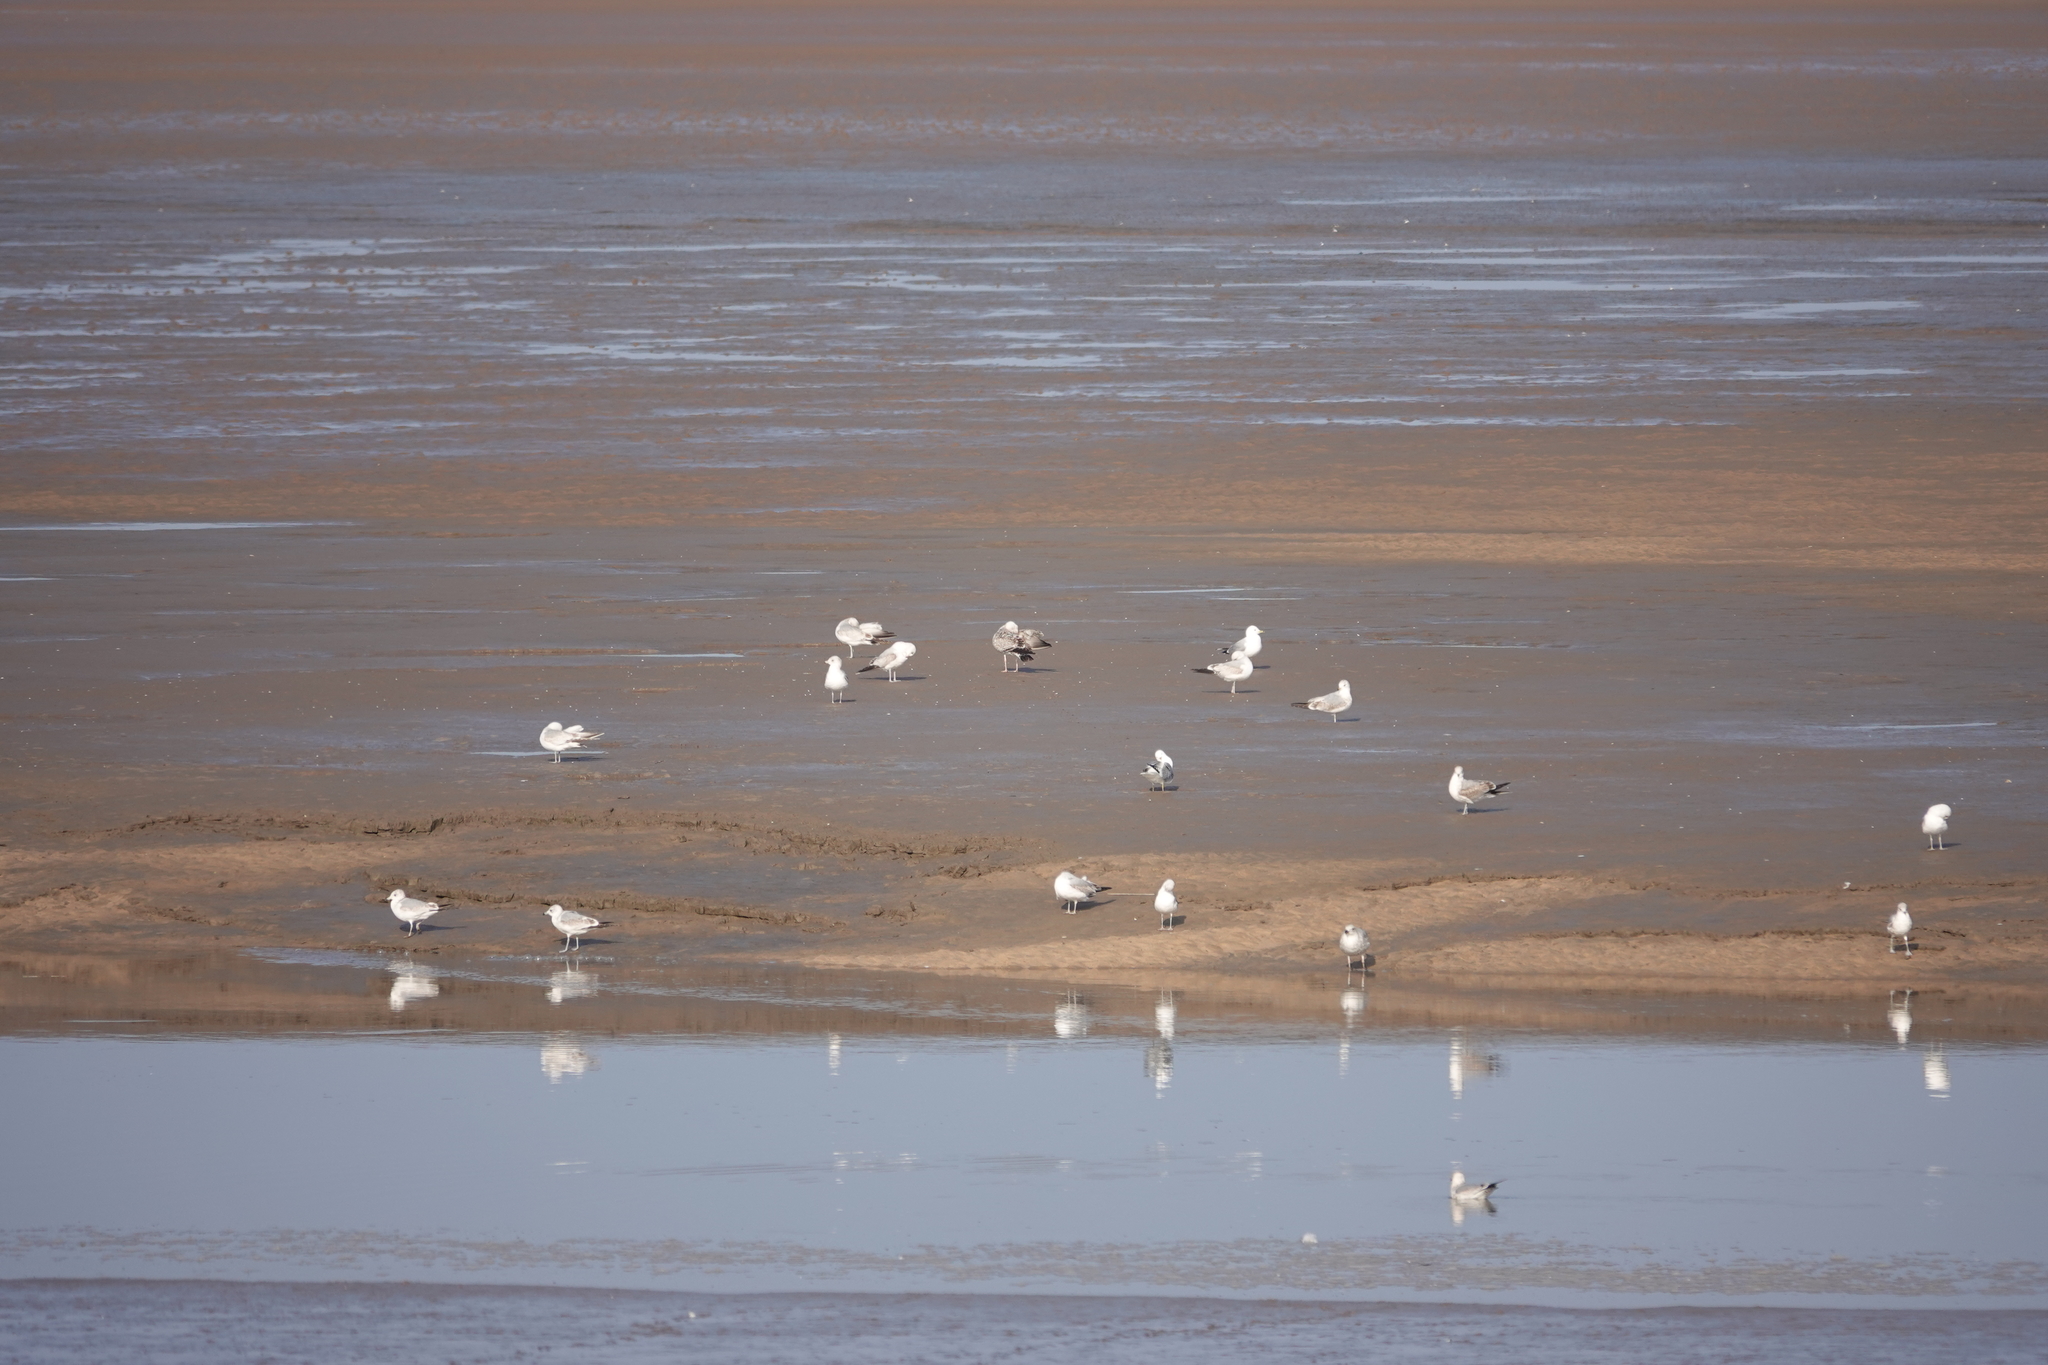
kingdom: Animalia
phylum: Chordata
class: Aves
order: Charadriiformes
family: Laridae
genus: Larus
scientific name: Larus canus
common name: Mew gull
